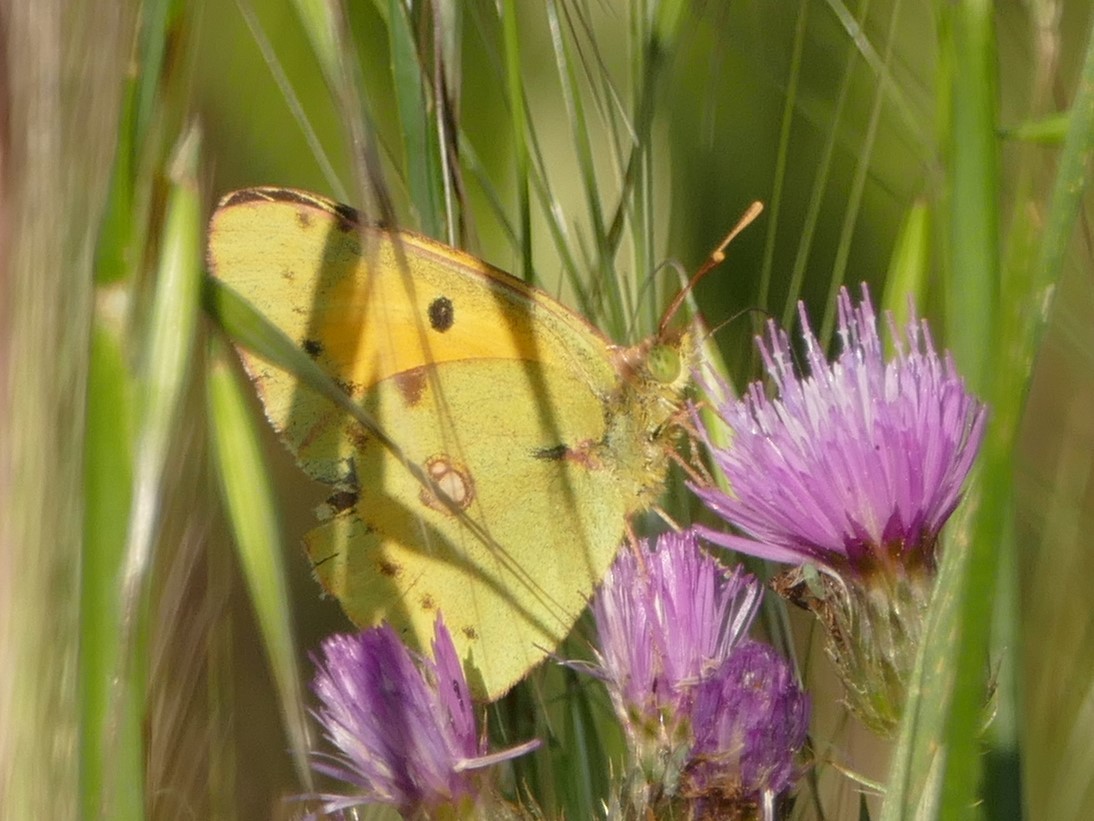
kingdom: Animalia
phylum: Arthropoda
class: Insecta
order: Lepidoptera
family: Pieridae
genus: Colias
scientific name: Colias croceus
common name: Clouded yellow
